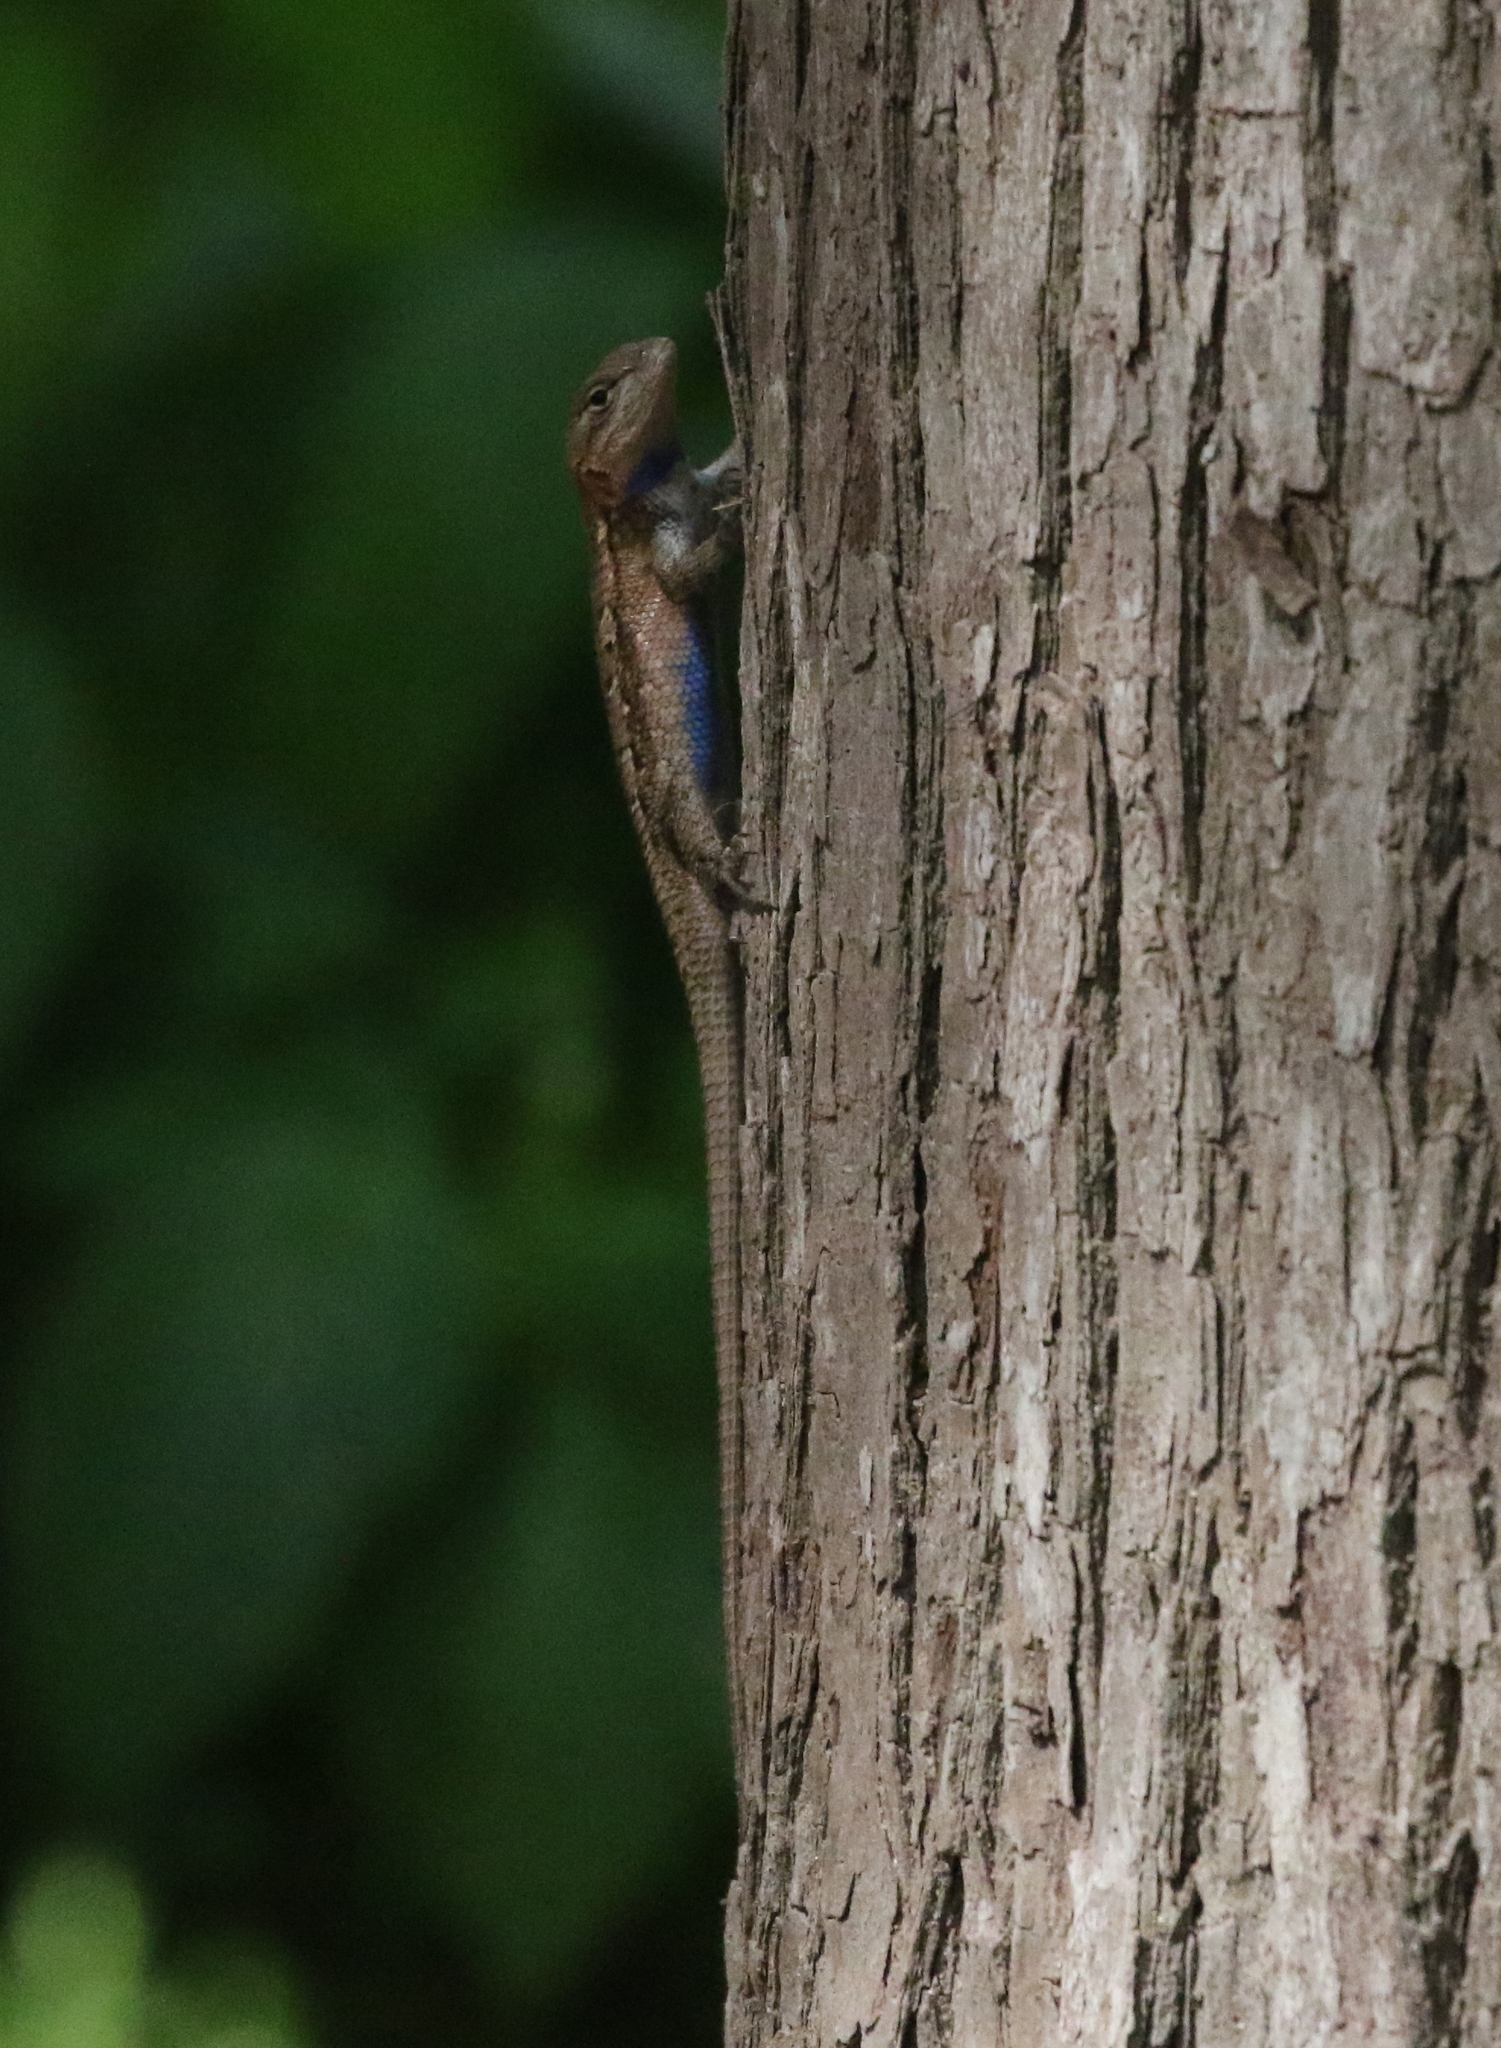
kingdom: Animalia
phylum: Chordata
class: Squamata
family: Phrynosomatidae
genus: Sceloporus
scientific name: Sceloporus consobrinus
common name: Southern prairie lizard
